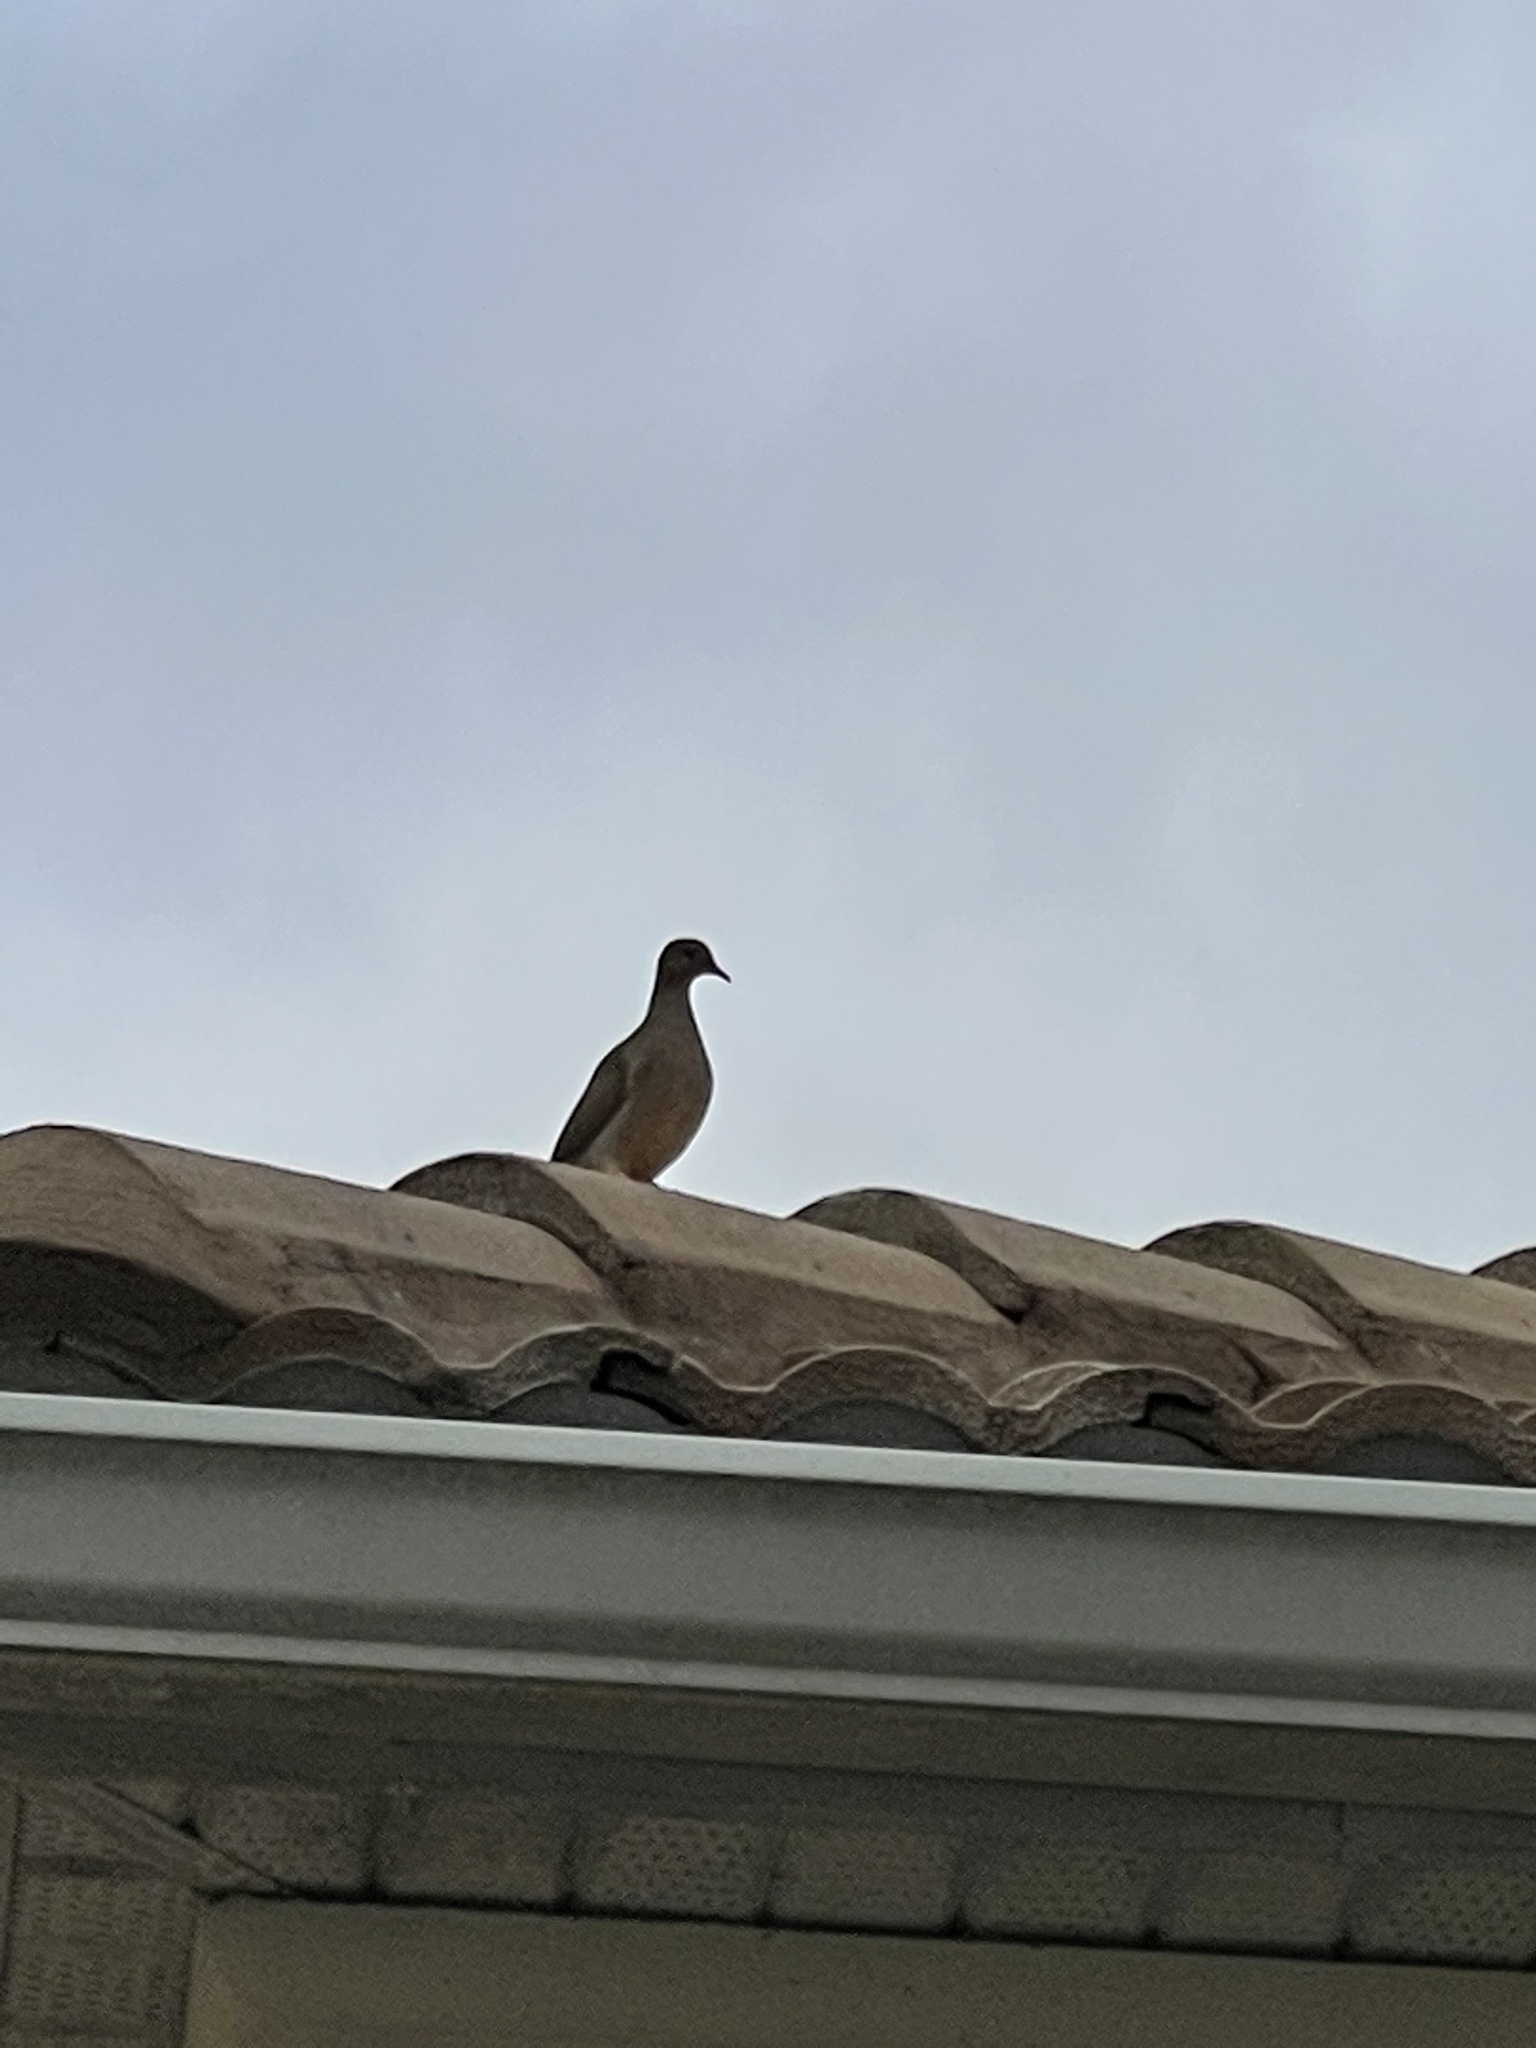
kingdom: Animalia
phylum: Chordata
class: Aves
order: Columbiformes
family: Columbidae
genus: Zenaida
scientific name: Zenaida macroura
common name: Mourning dove
